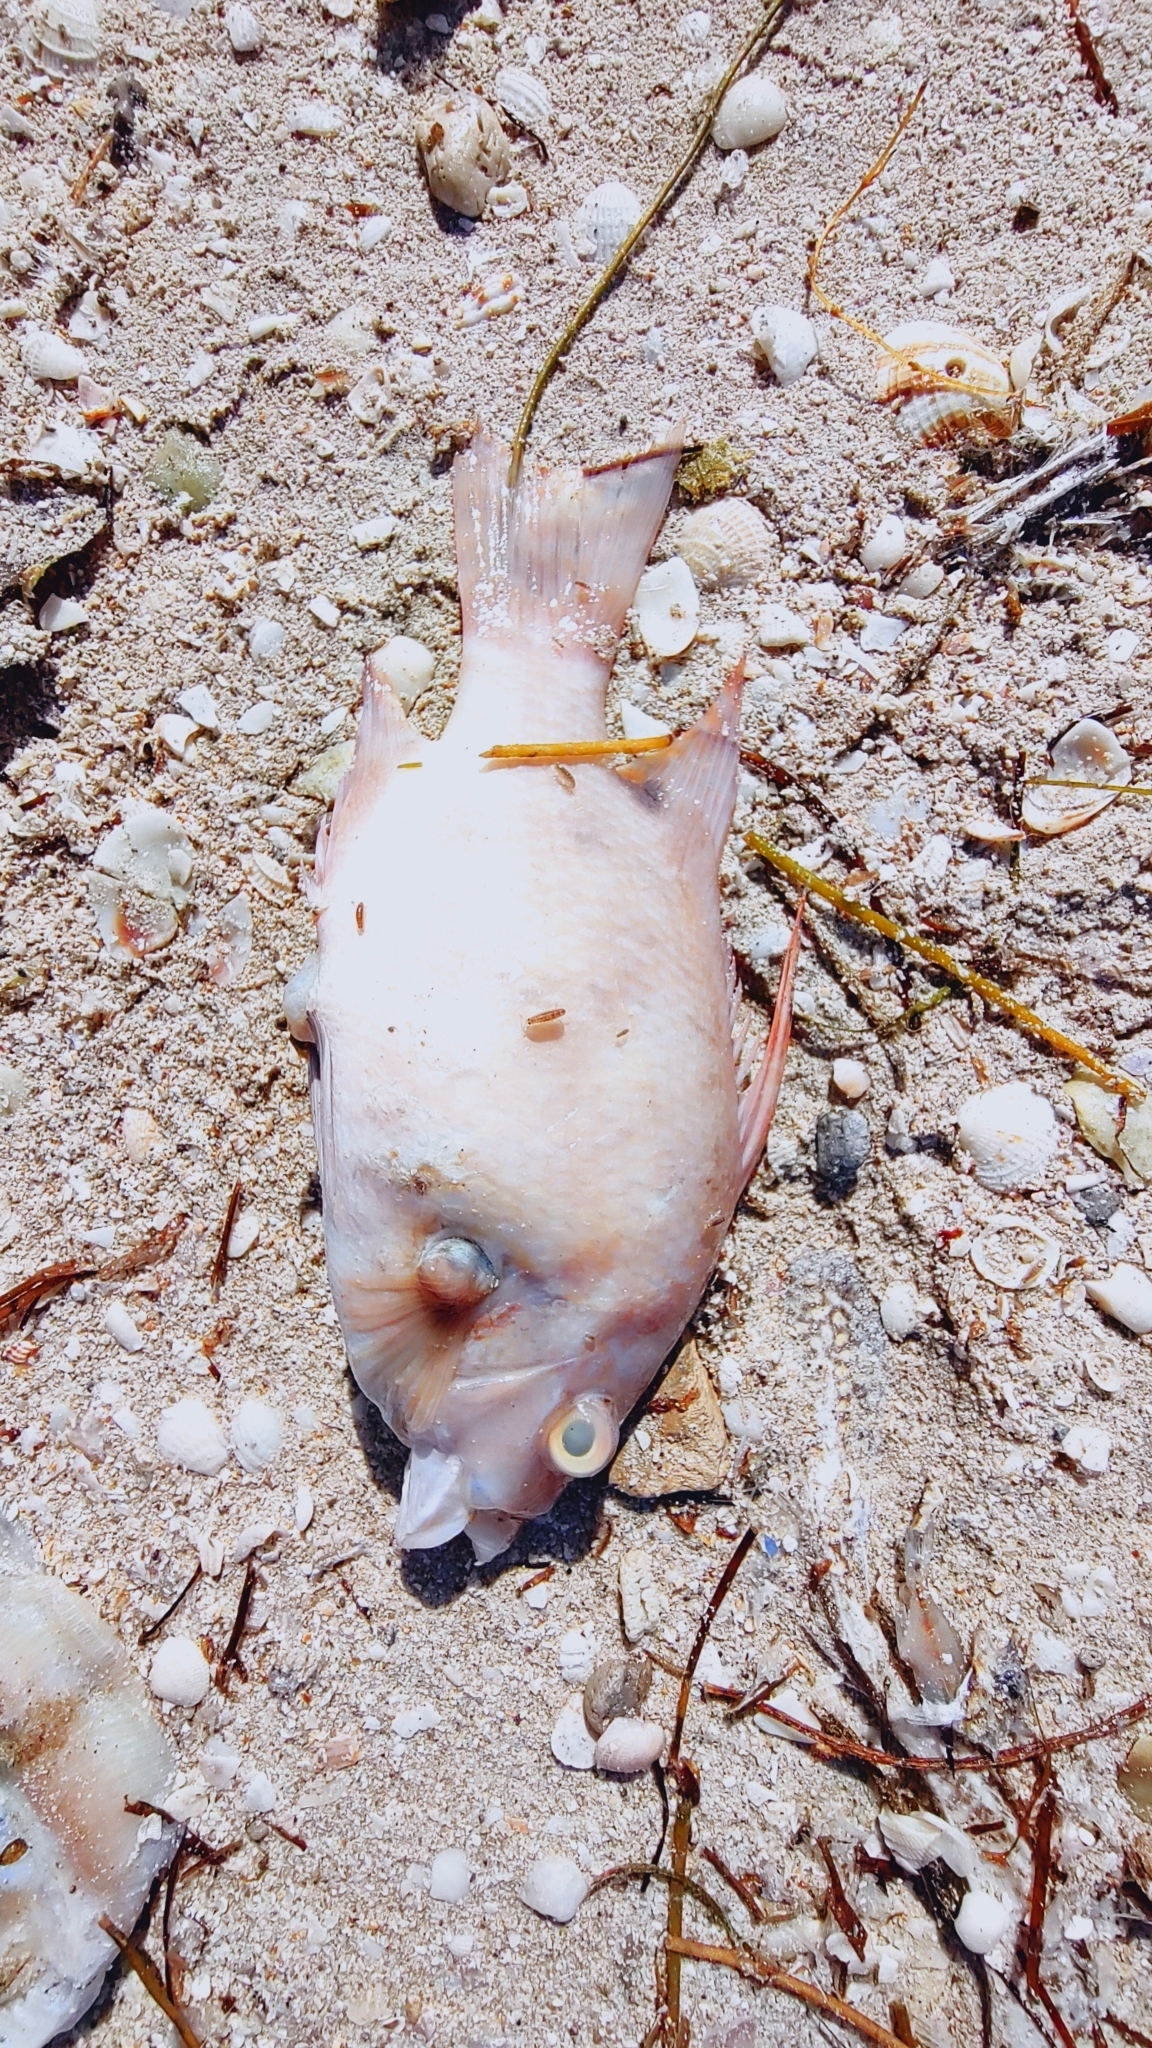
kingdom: Animalia
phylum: Chordata
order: Perciformes
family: Labridae
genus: Lachnolaimus
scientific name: Lachnolaimus maximus
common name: Hogfish
